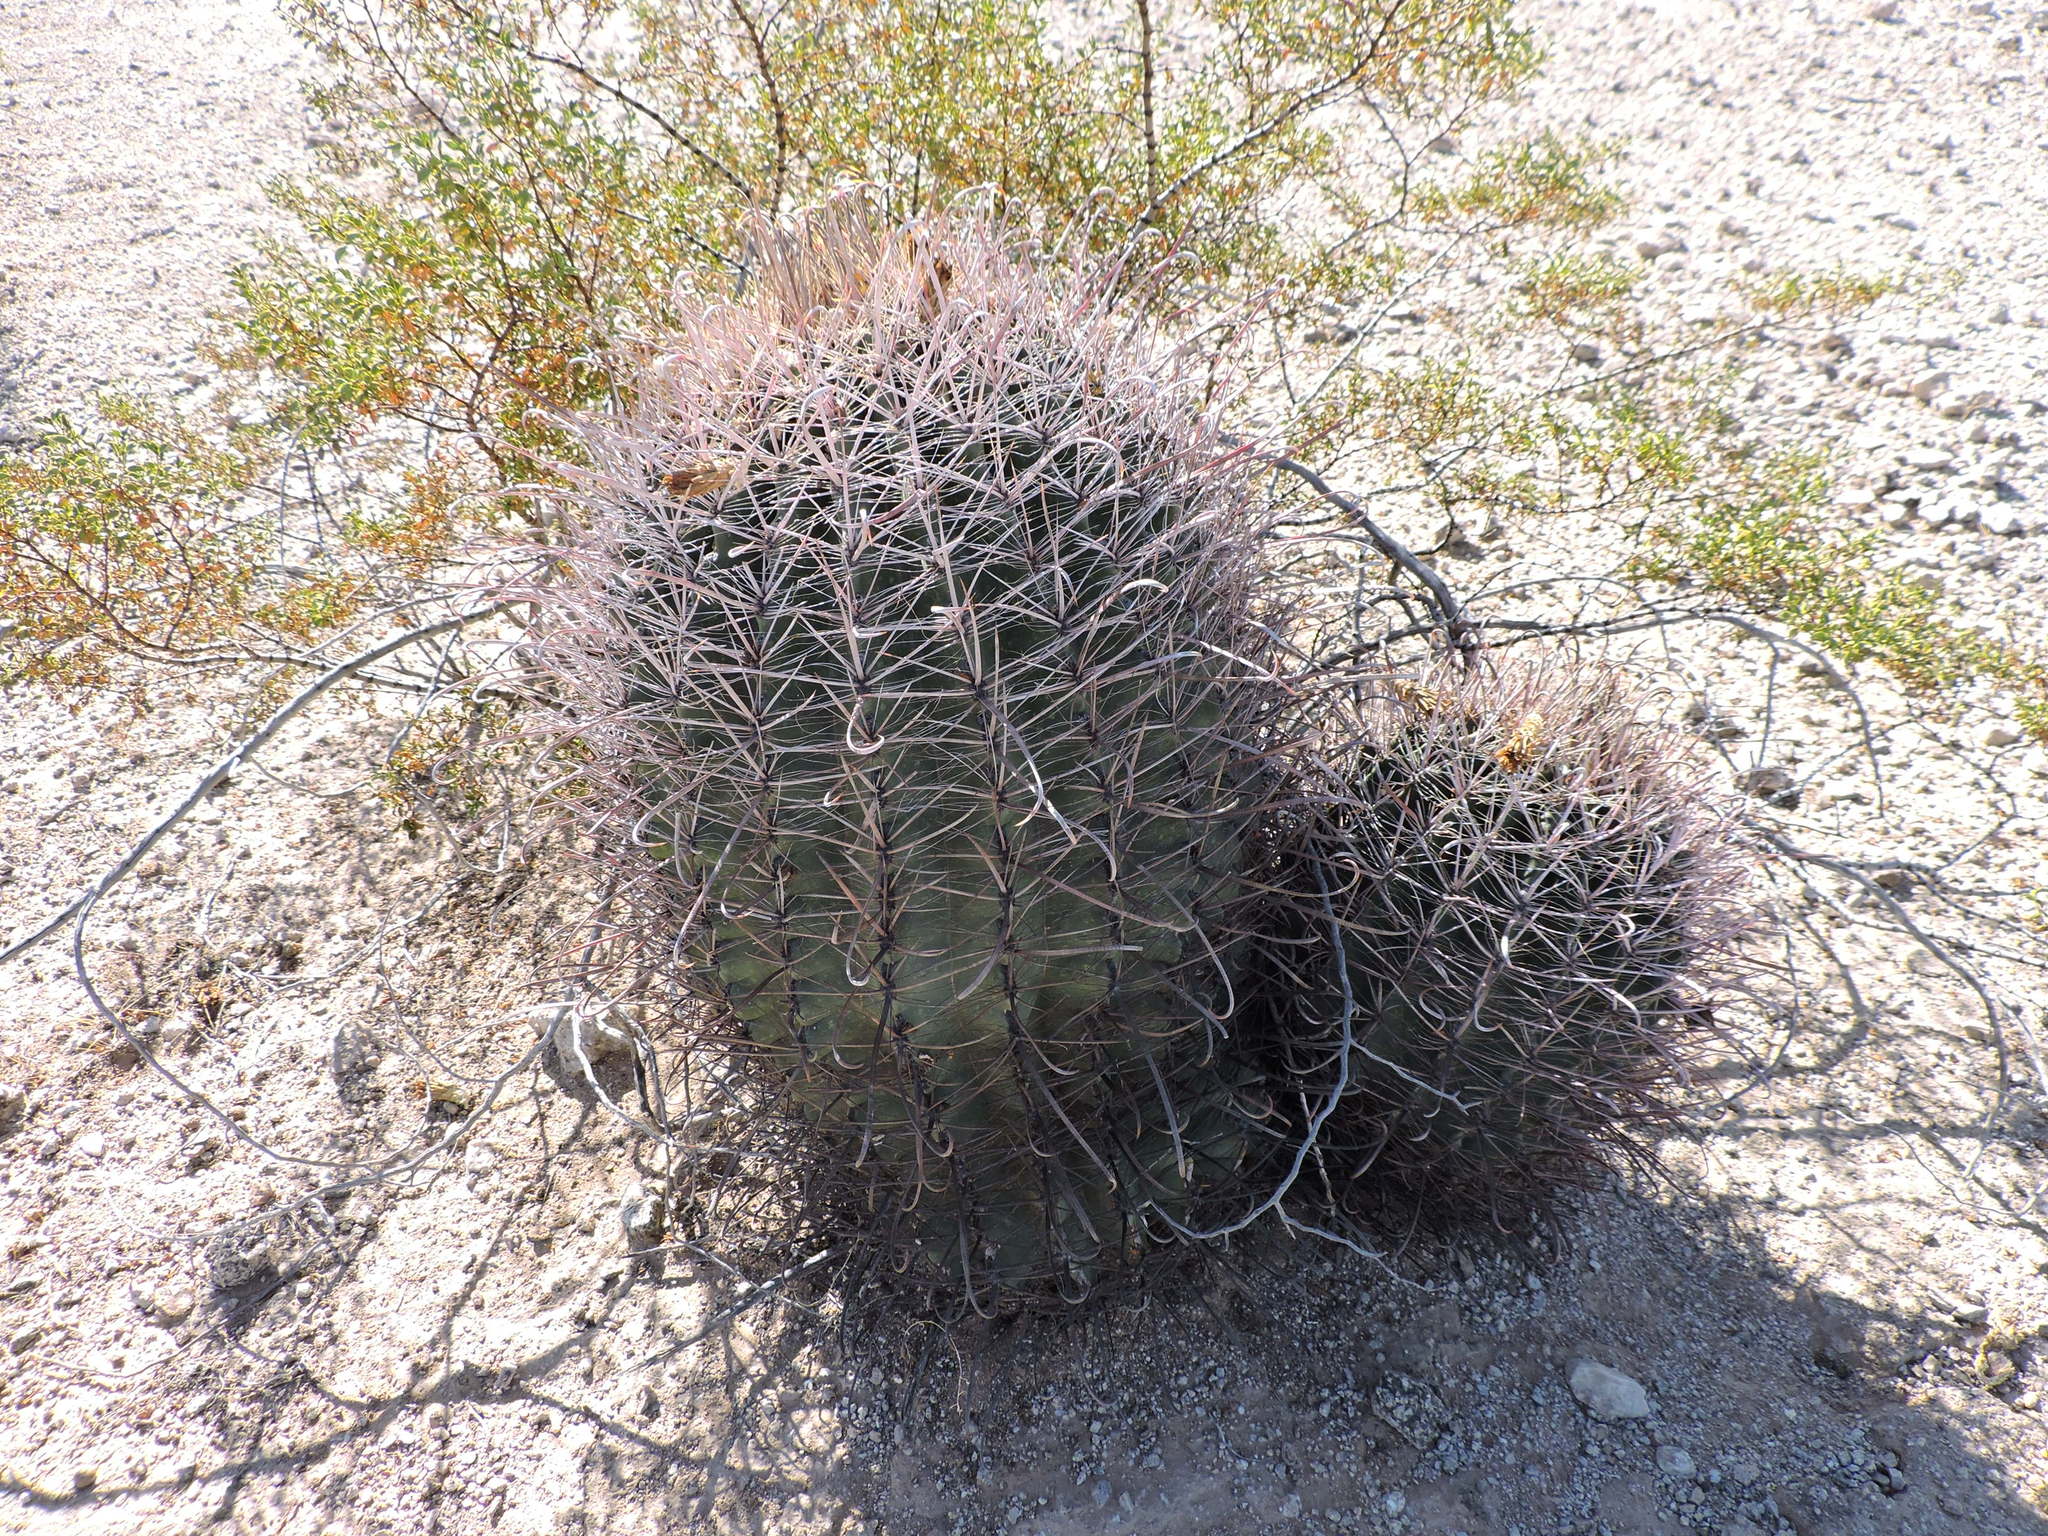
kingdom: Plantae
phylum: Tracheophyta
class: Magnoliopsida
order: Caryophyllales
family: Cactaceae
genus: Ferocactus
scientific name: Ferocactus wislizeni
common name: Candy barrel cactus
